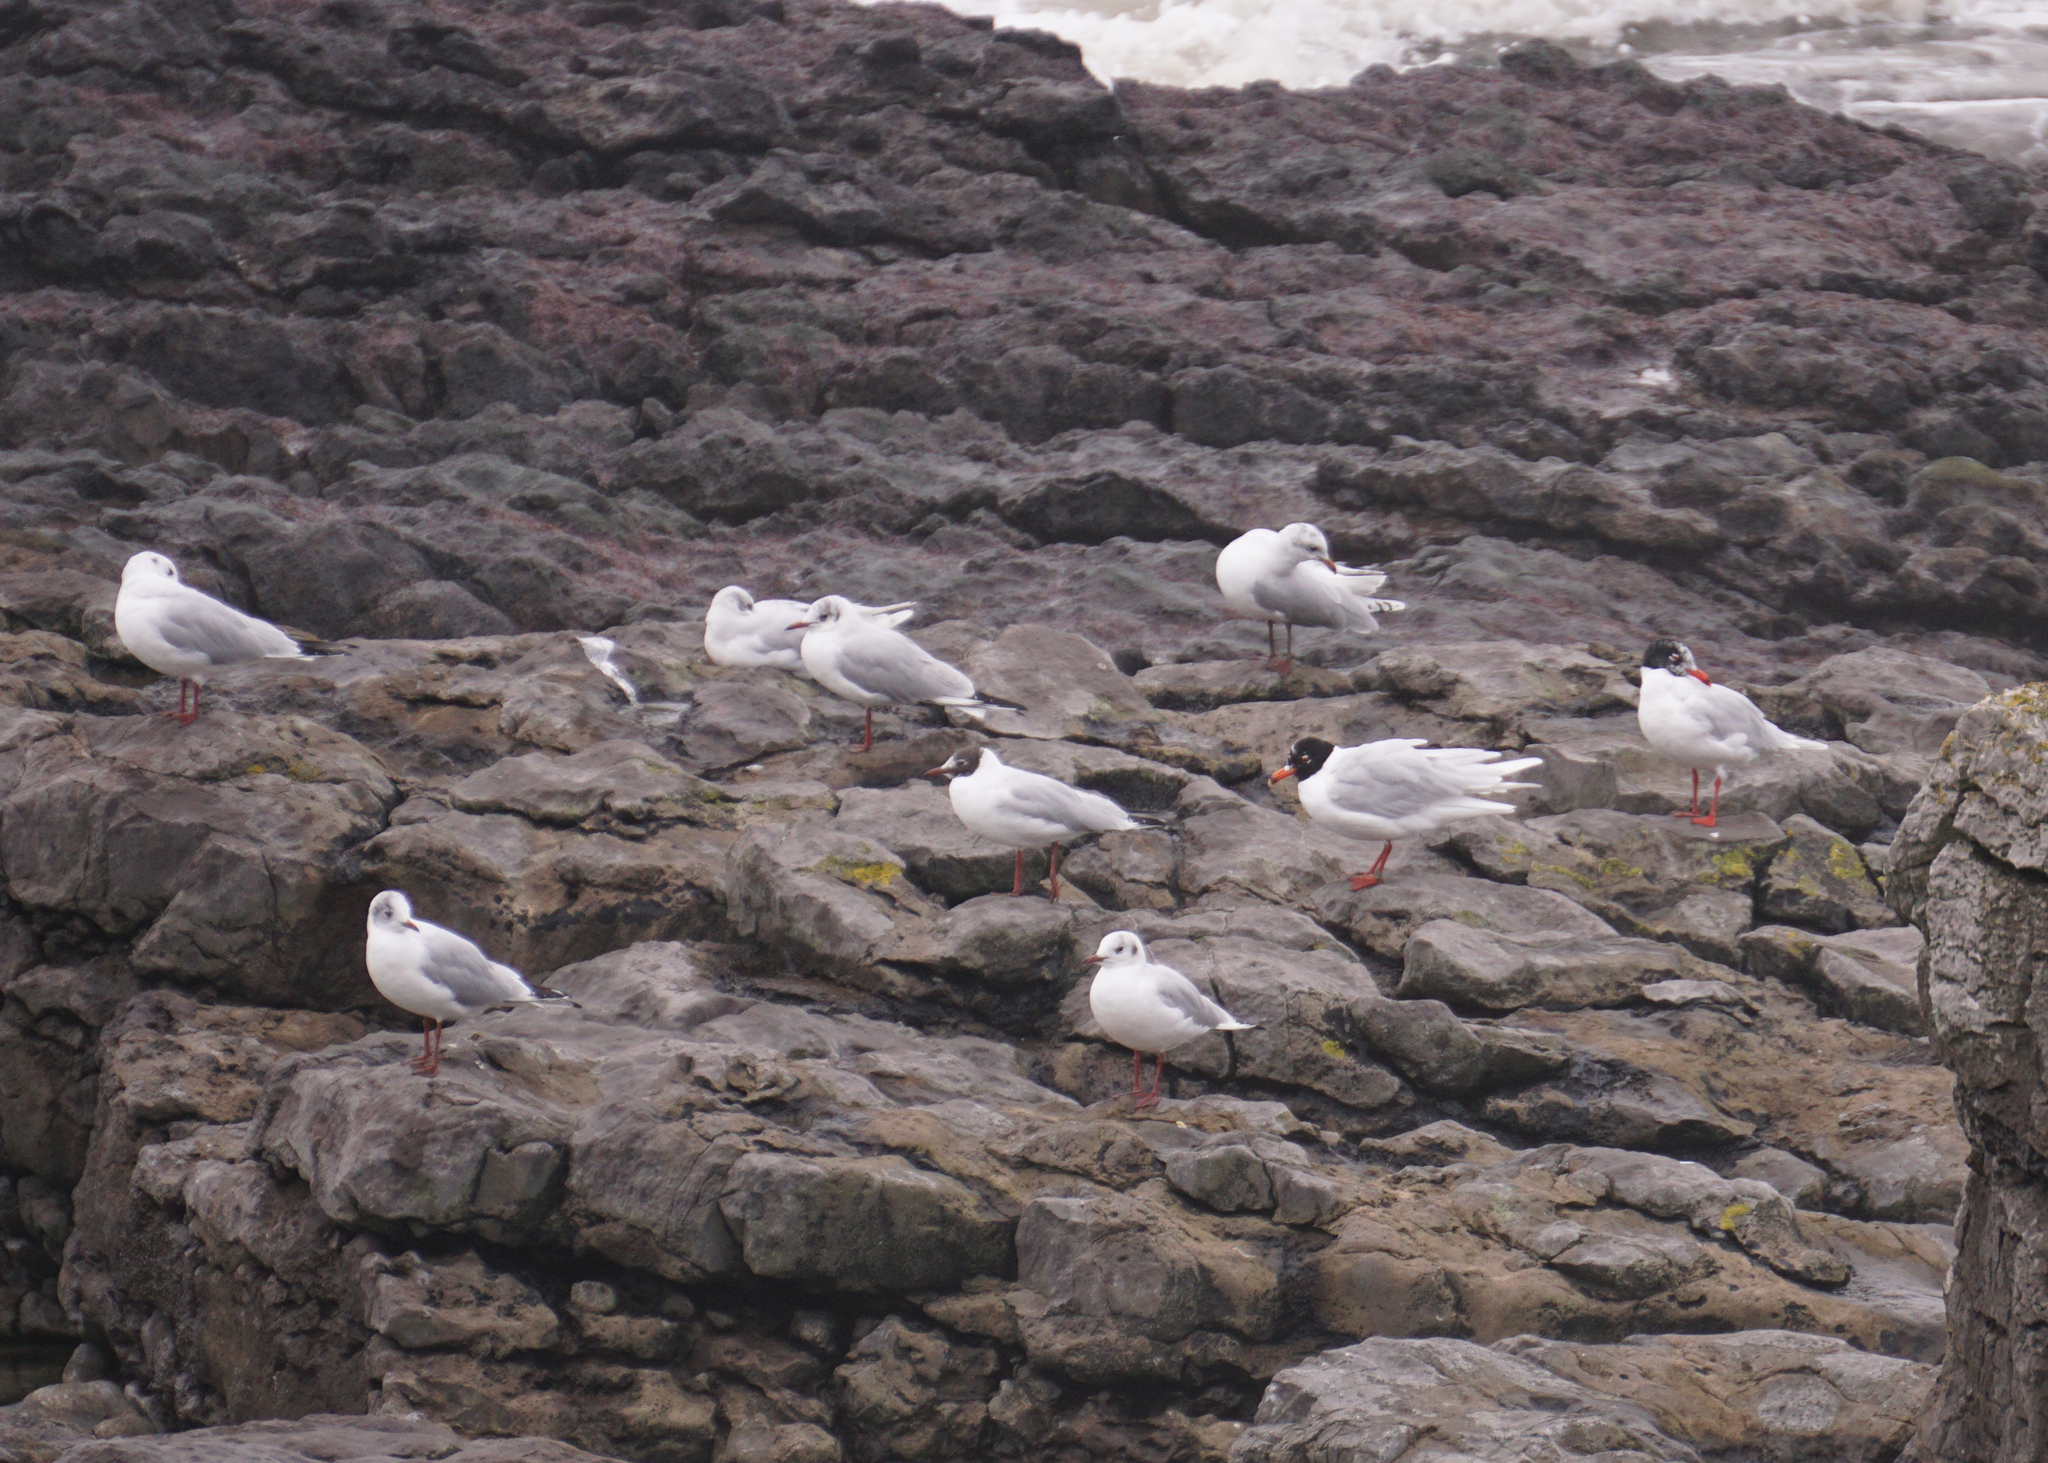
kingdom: Animalia
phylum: Chordata
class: Aves
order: Charadriiformes
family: Laridae
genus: Ichthyaetus
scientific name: Ichthyaetus melanocephalus
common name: Mediterranean gull
